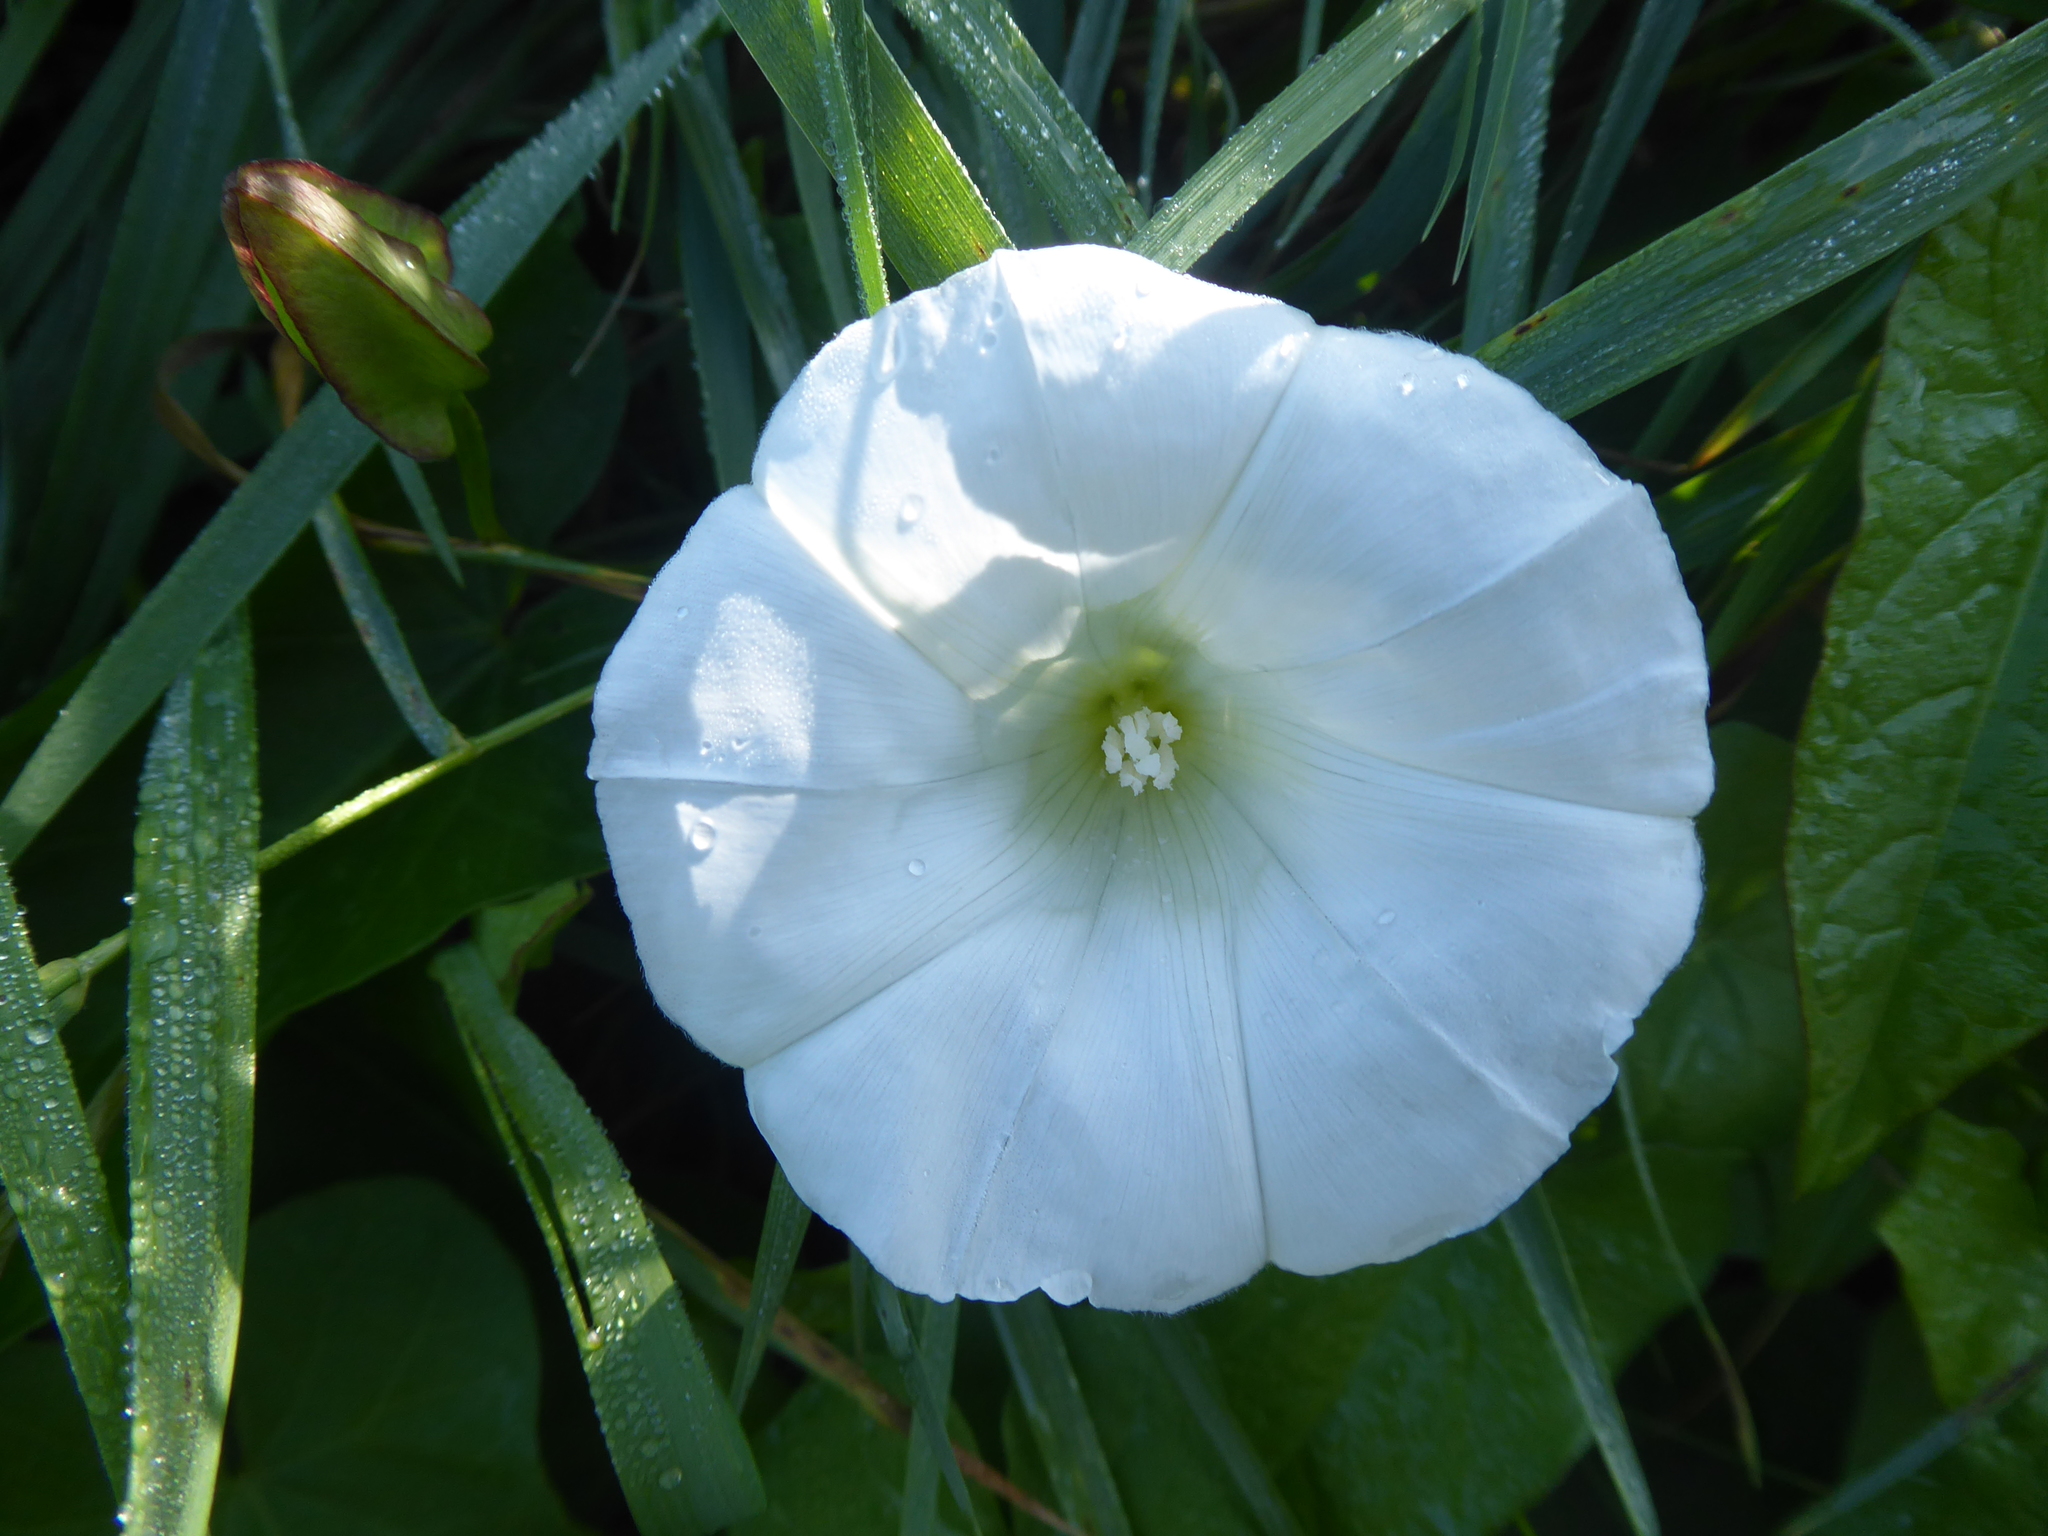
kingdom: Plantae
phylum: Tracheophyta
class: Magnoliopsida
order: Solanales
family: Convolvulaceae
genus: Calystegia
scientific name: Calystegia sepium
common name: Hedge bindweed
